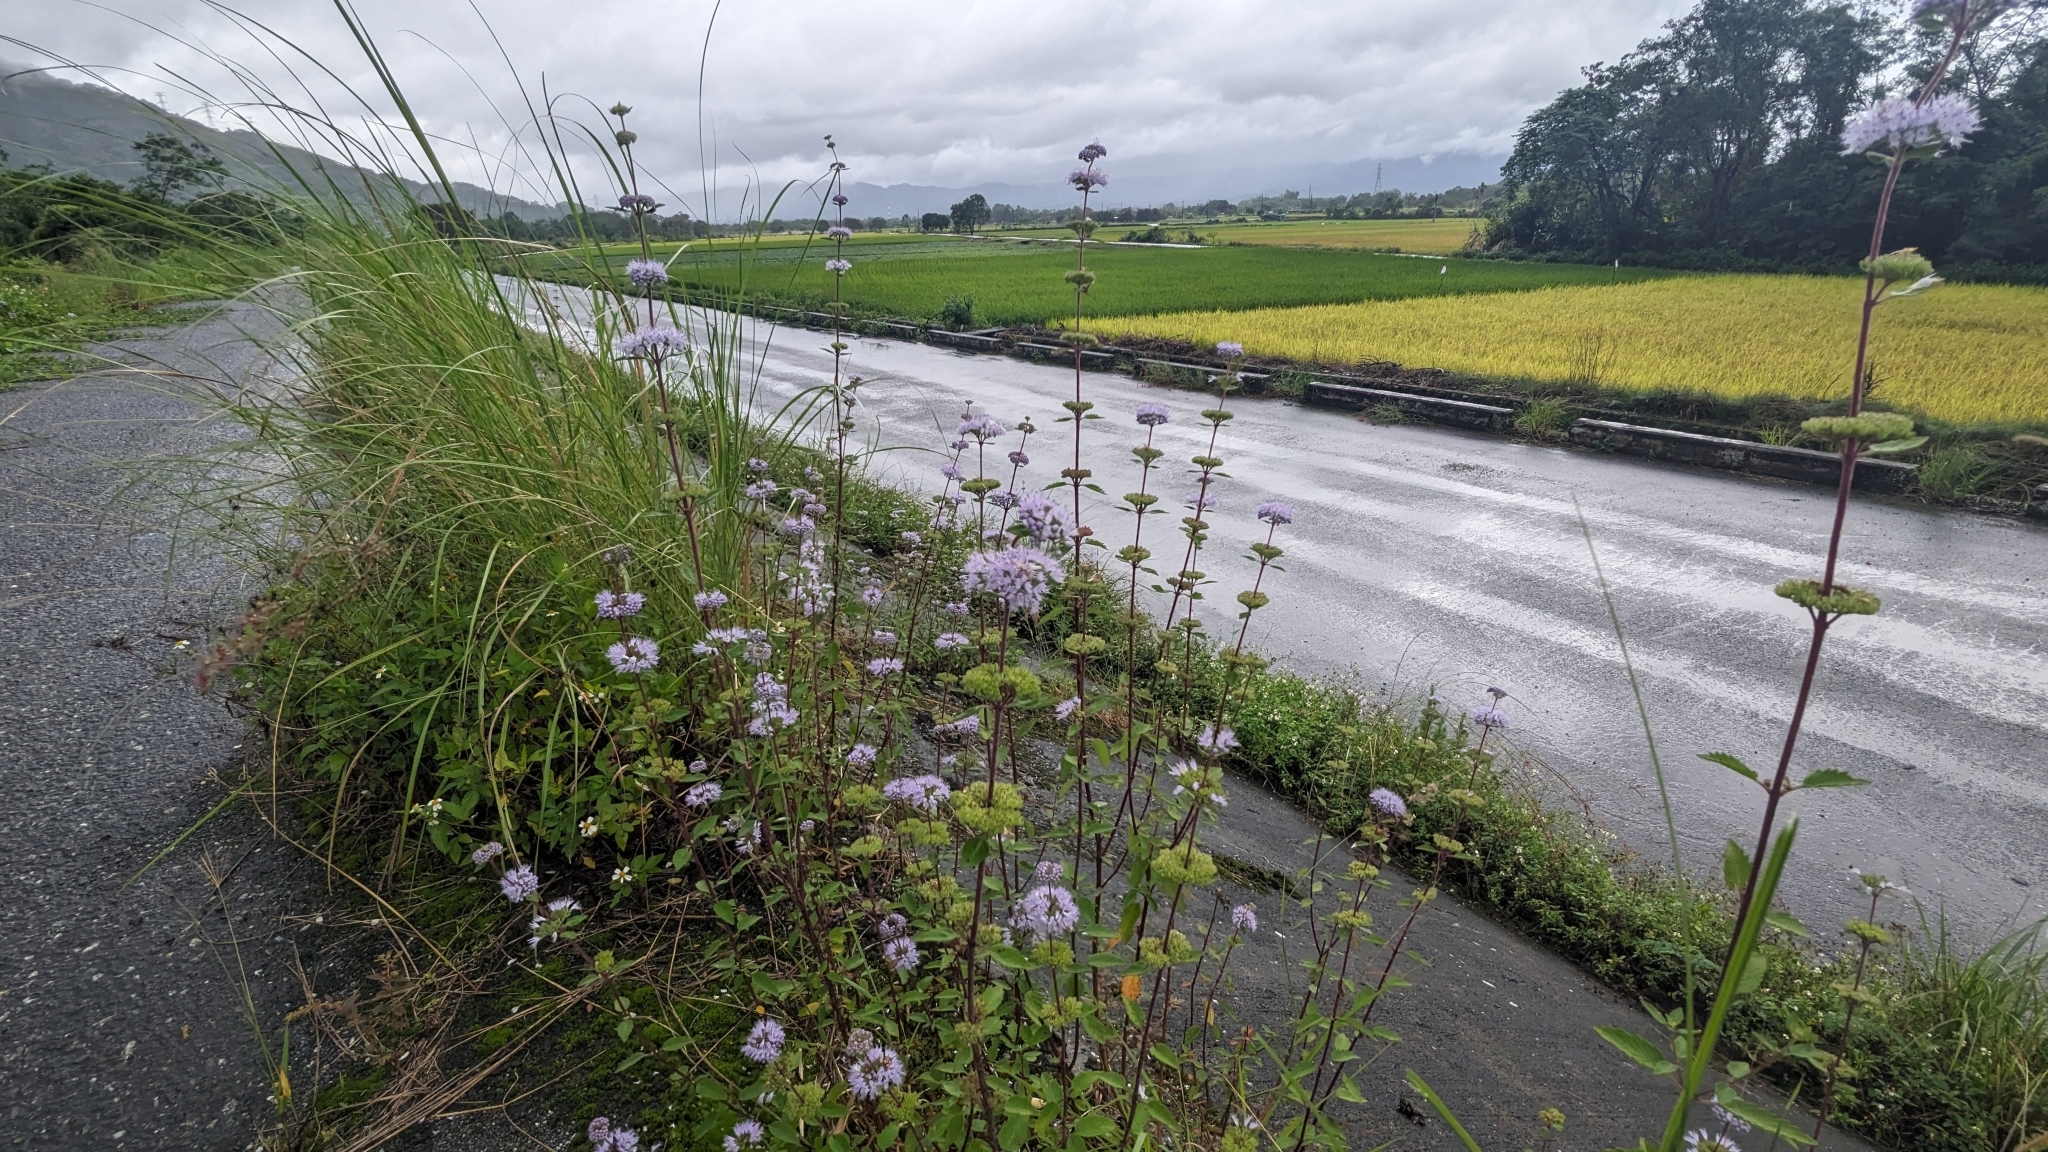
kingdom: Plantae
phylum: Tracheophyta
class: Magnoliopsida
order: Lamiales
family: Lamiaceae
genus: Caryopteris
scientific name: Caryopteris incana
